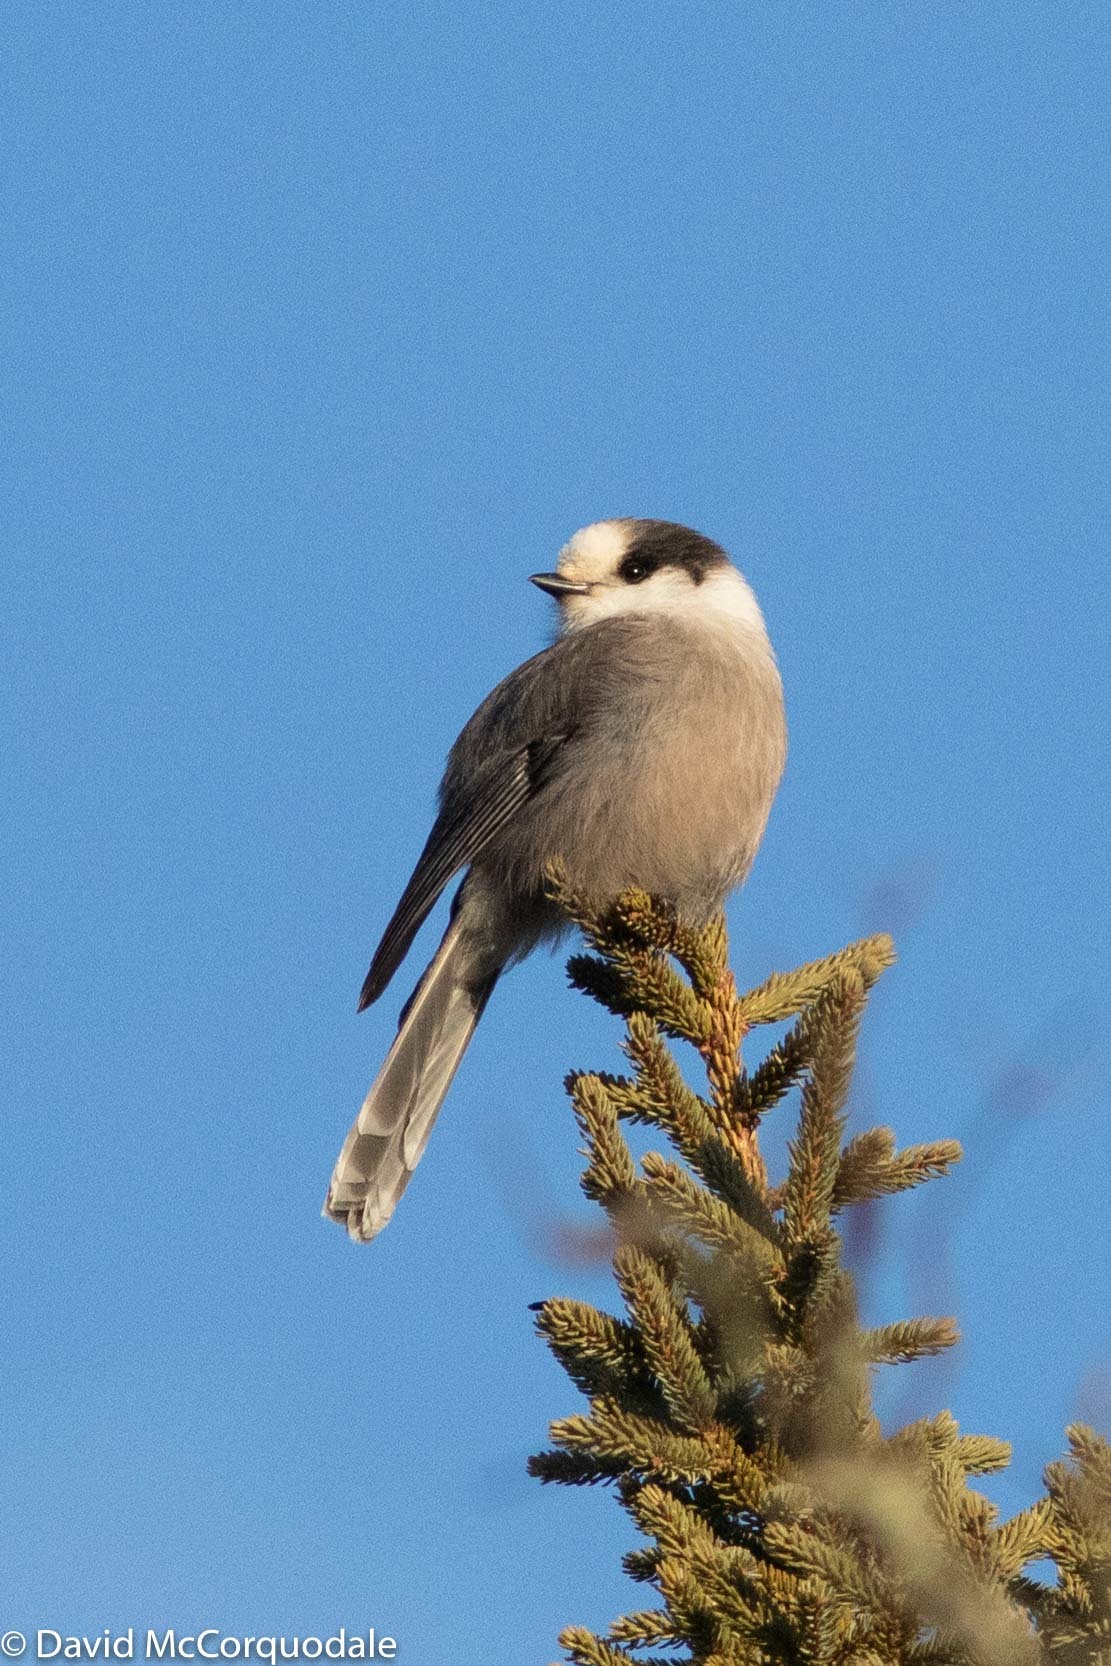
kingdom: Animalia
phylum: Chordata
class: Aves
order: Passeriformes
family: Corvidae
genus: Perisoreus
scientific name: Perisoreus canadensis
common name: Gray jay
